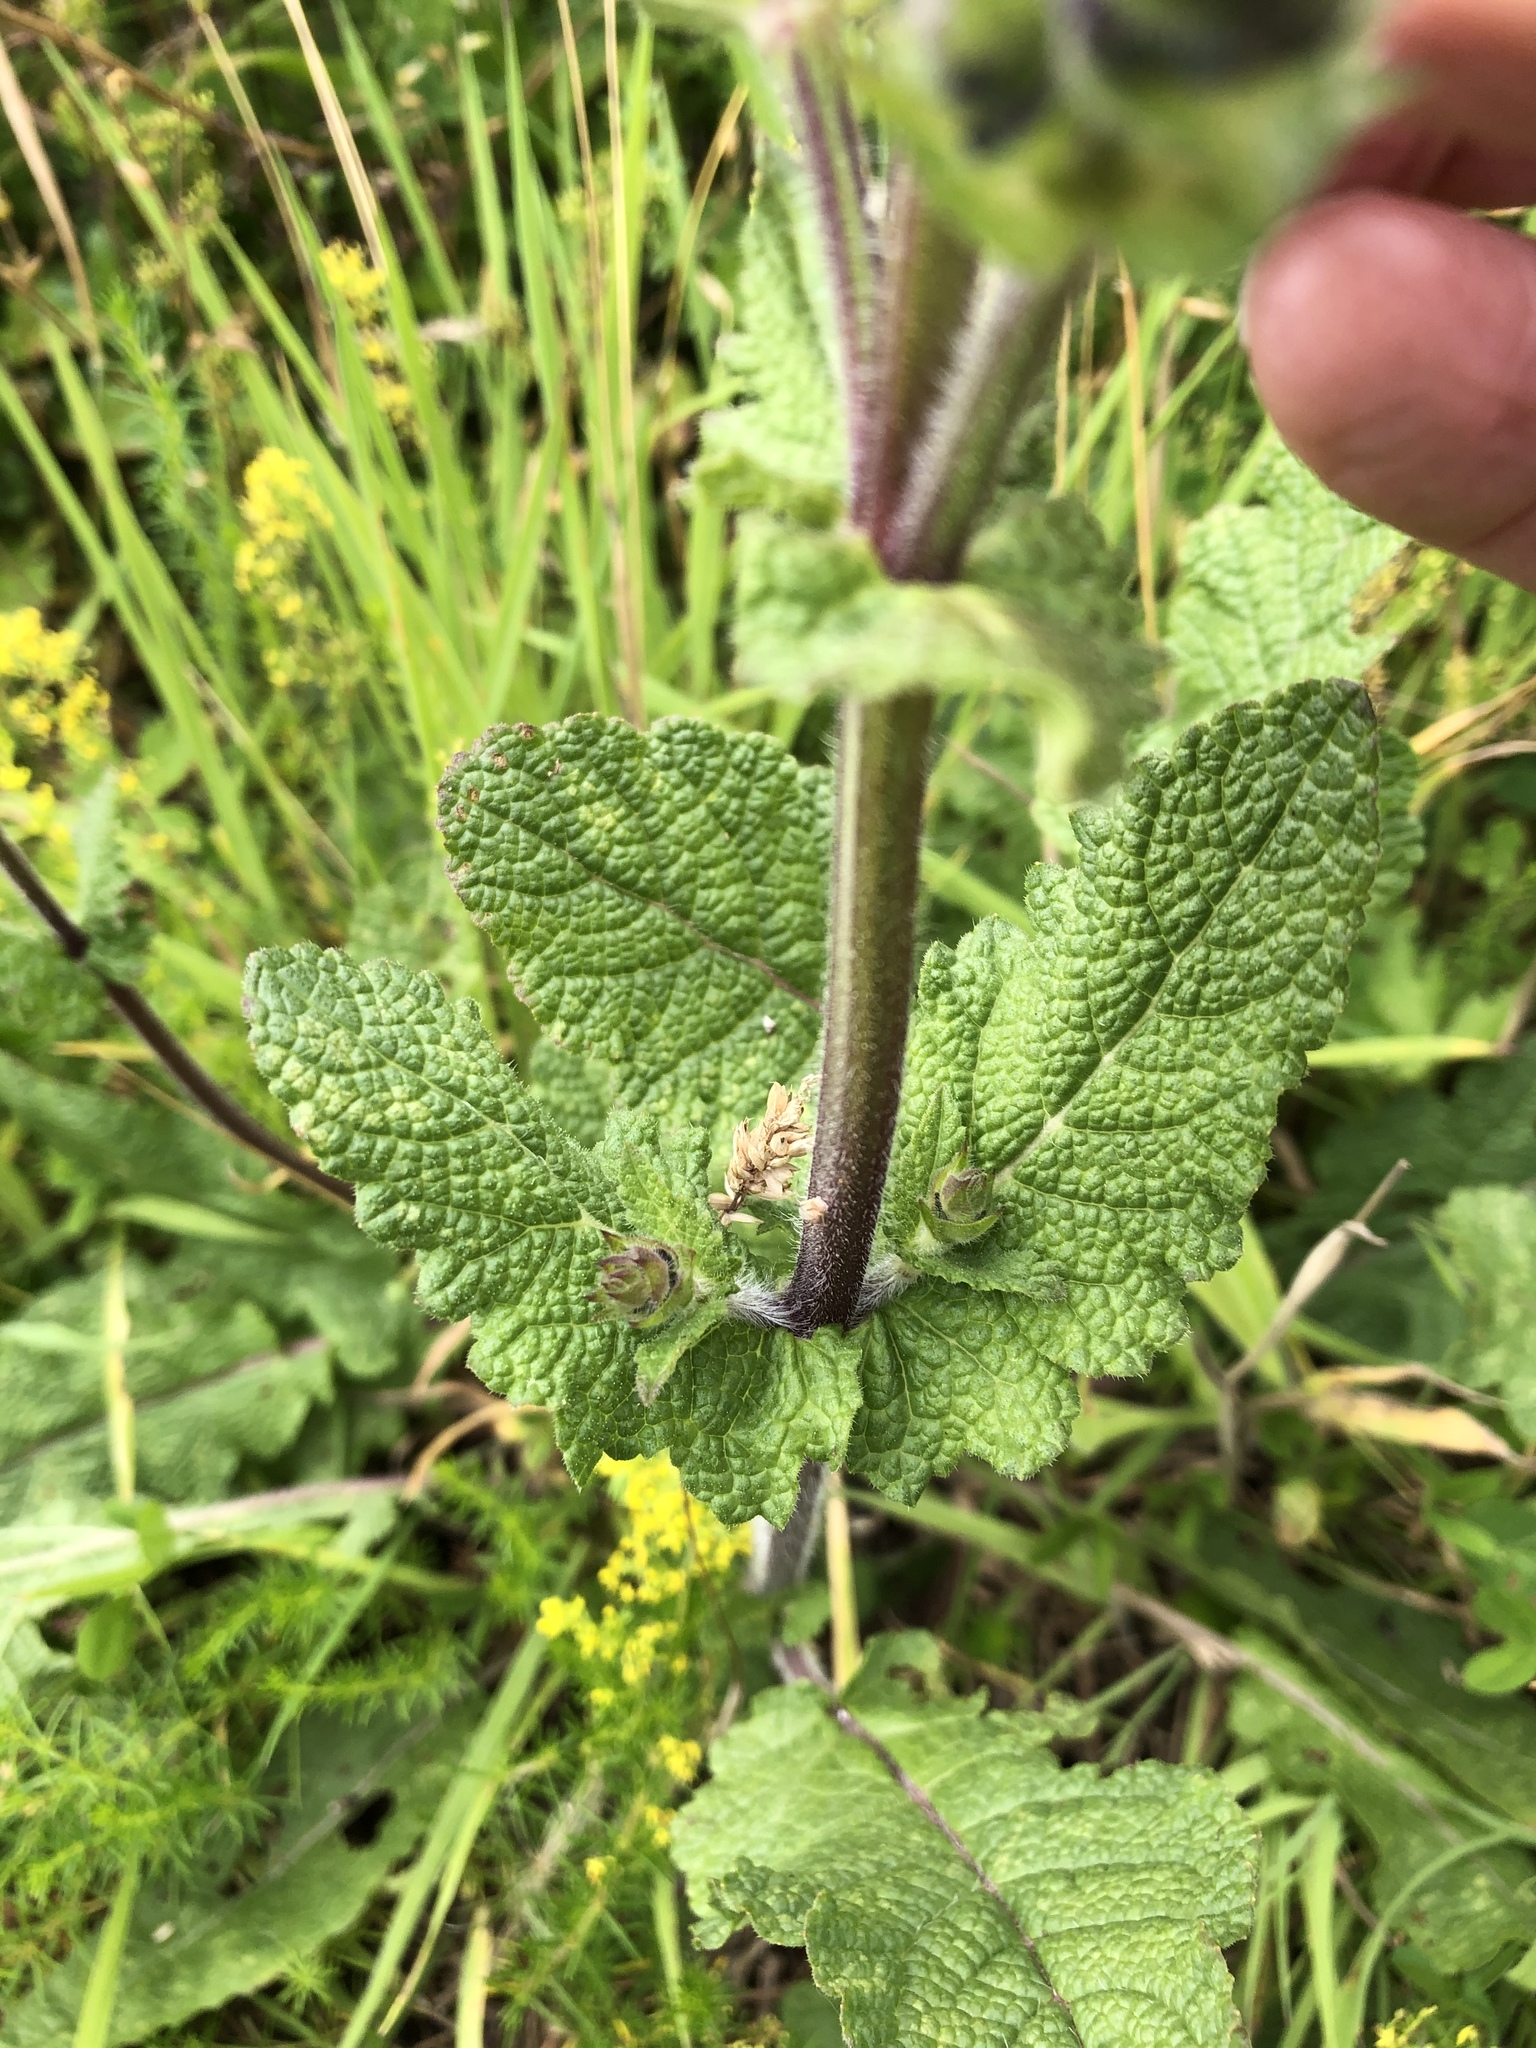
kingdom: Plantae
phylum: Tracheophyta
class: Magnoliopsida
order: Lamiales
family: Lamiaceae
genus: Salvia
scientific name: Salvia verbenaca
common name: Wild clary
